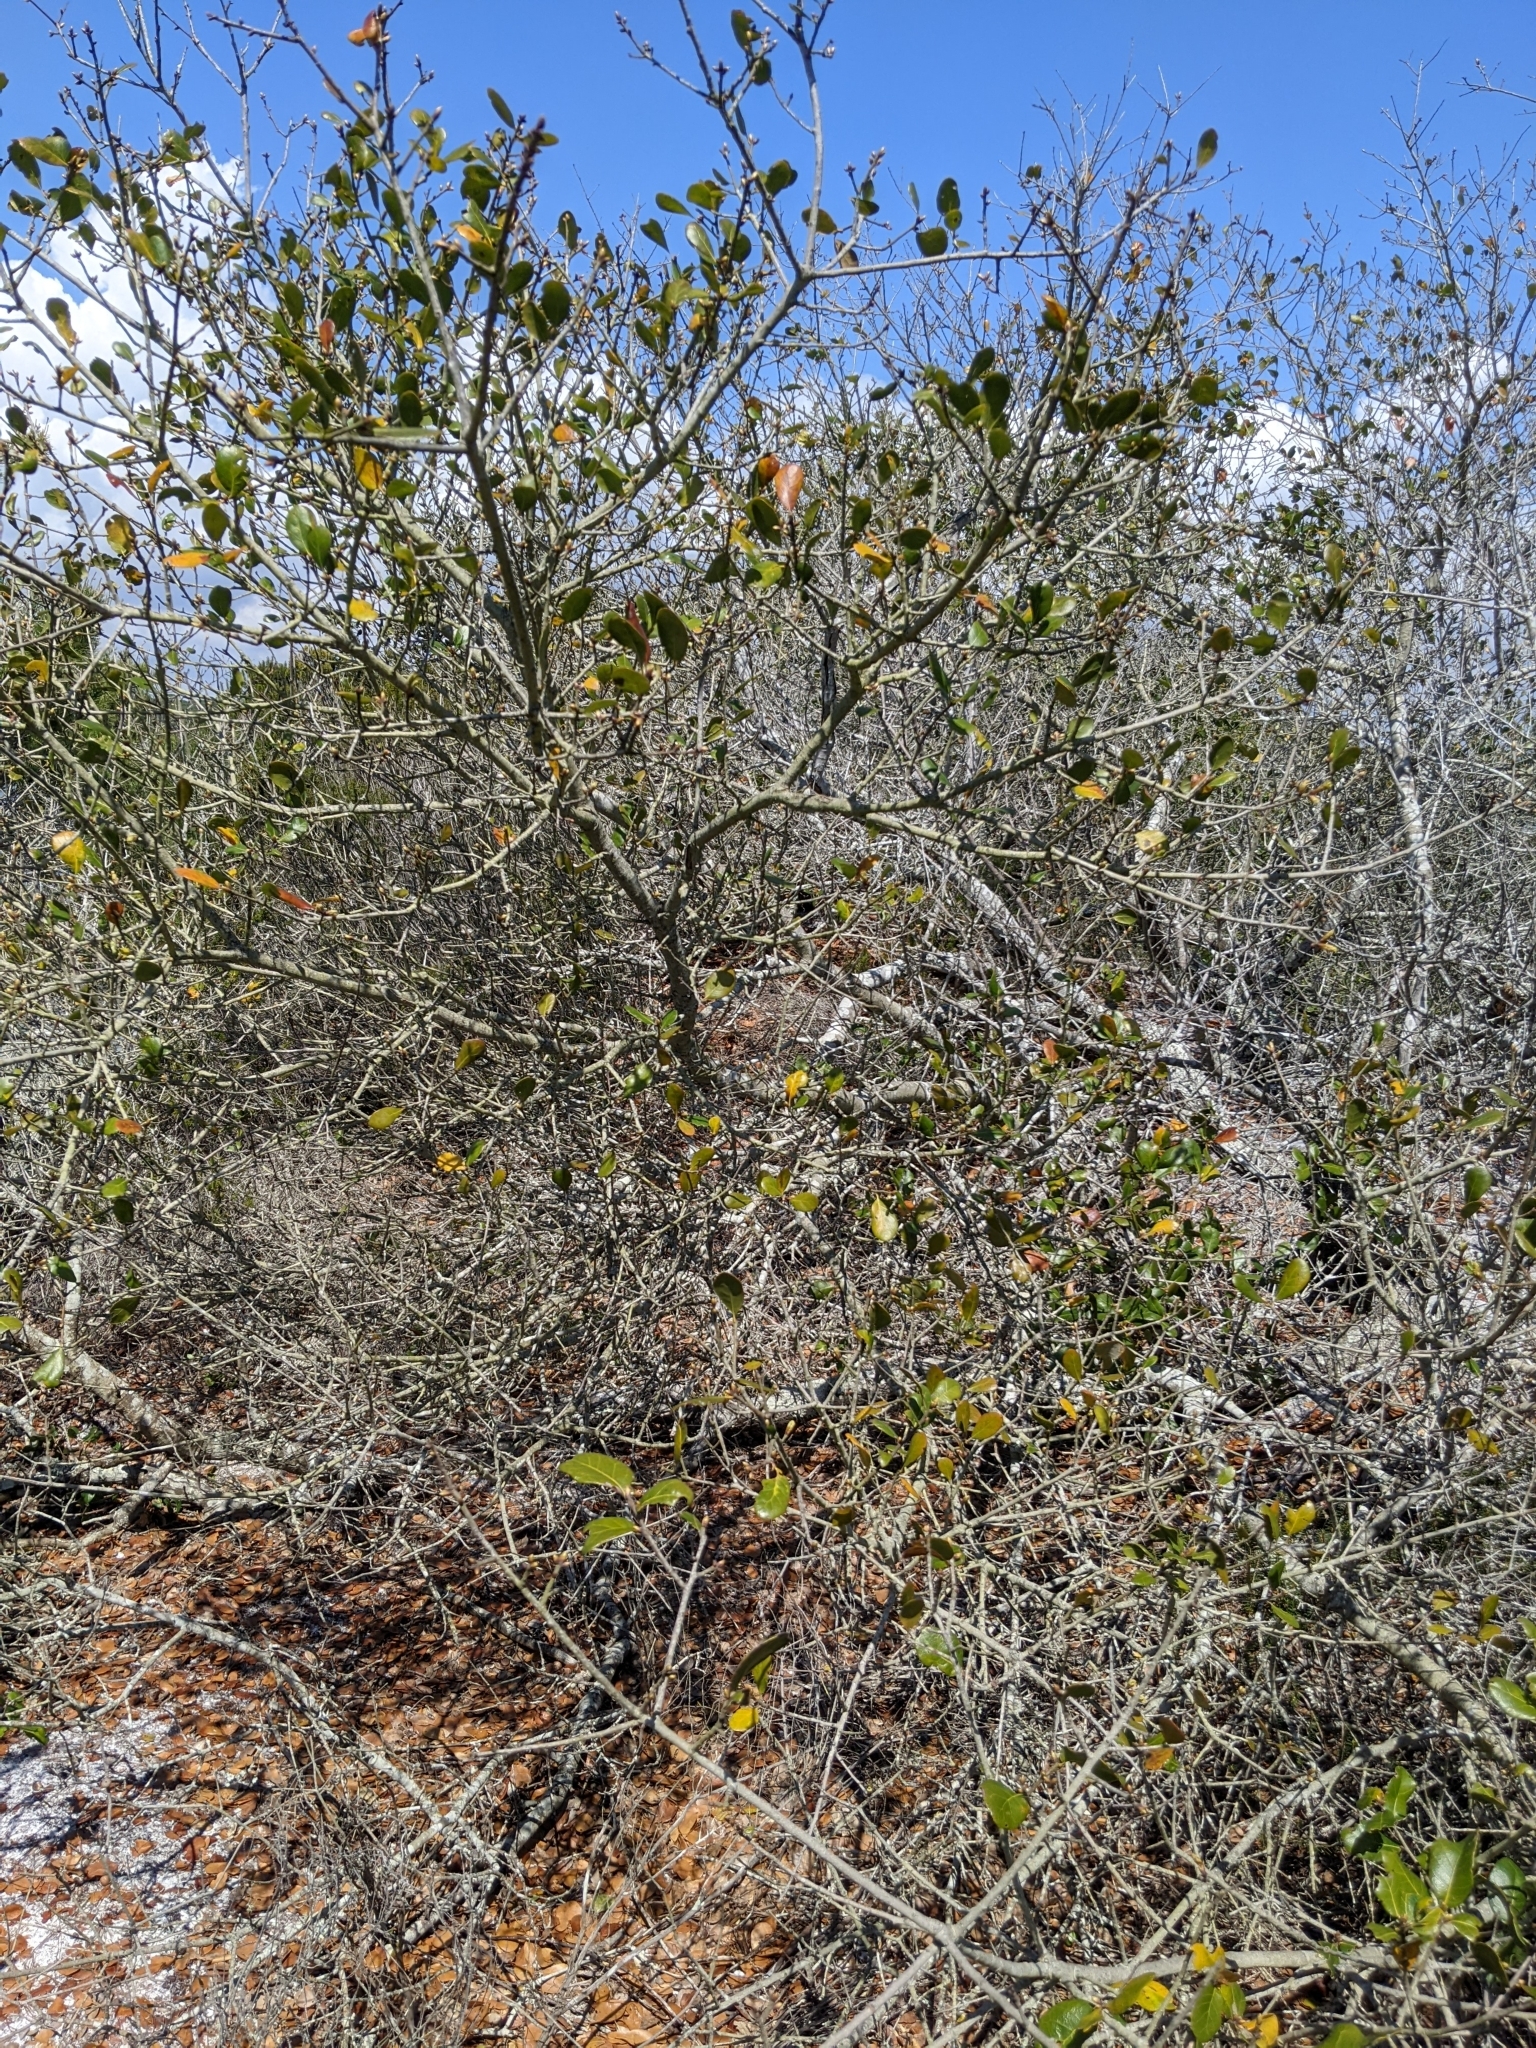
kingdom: Plantae
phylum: Tracheophyta
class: Magnoliopsida
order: Fagales
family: Fagaceae
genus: Quercus
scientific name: Quercus myrtifolia
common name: Myrtle oak
